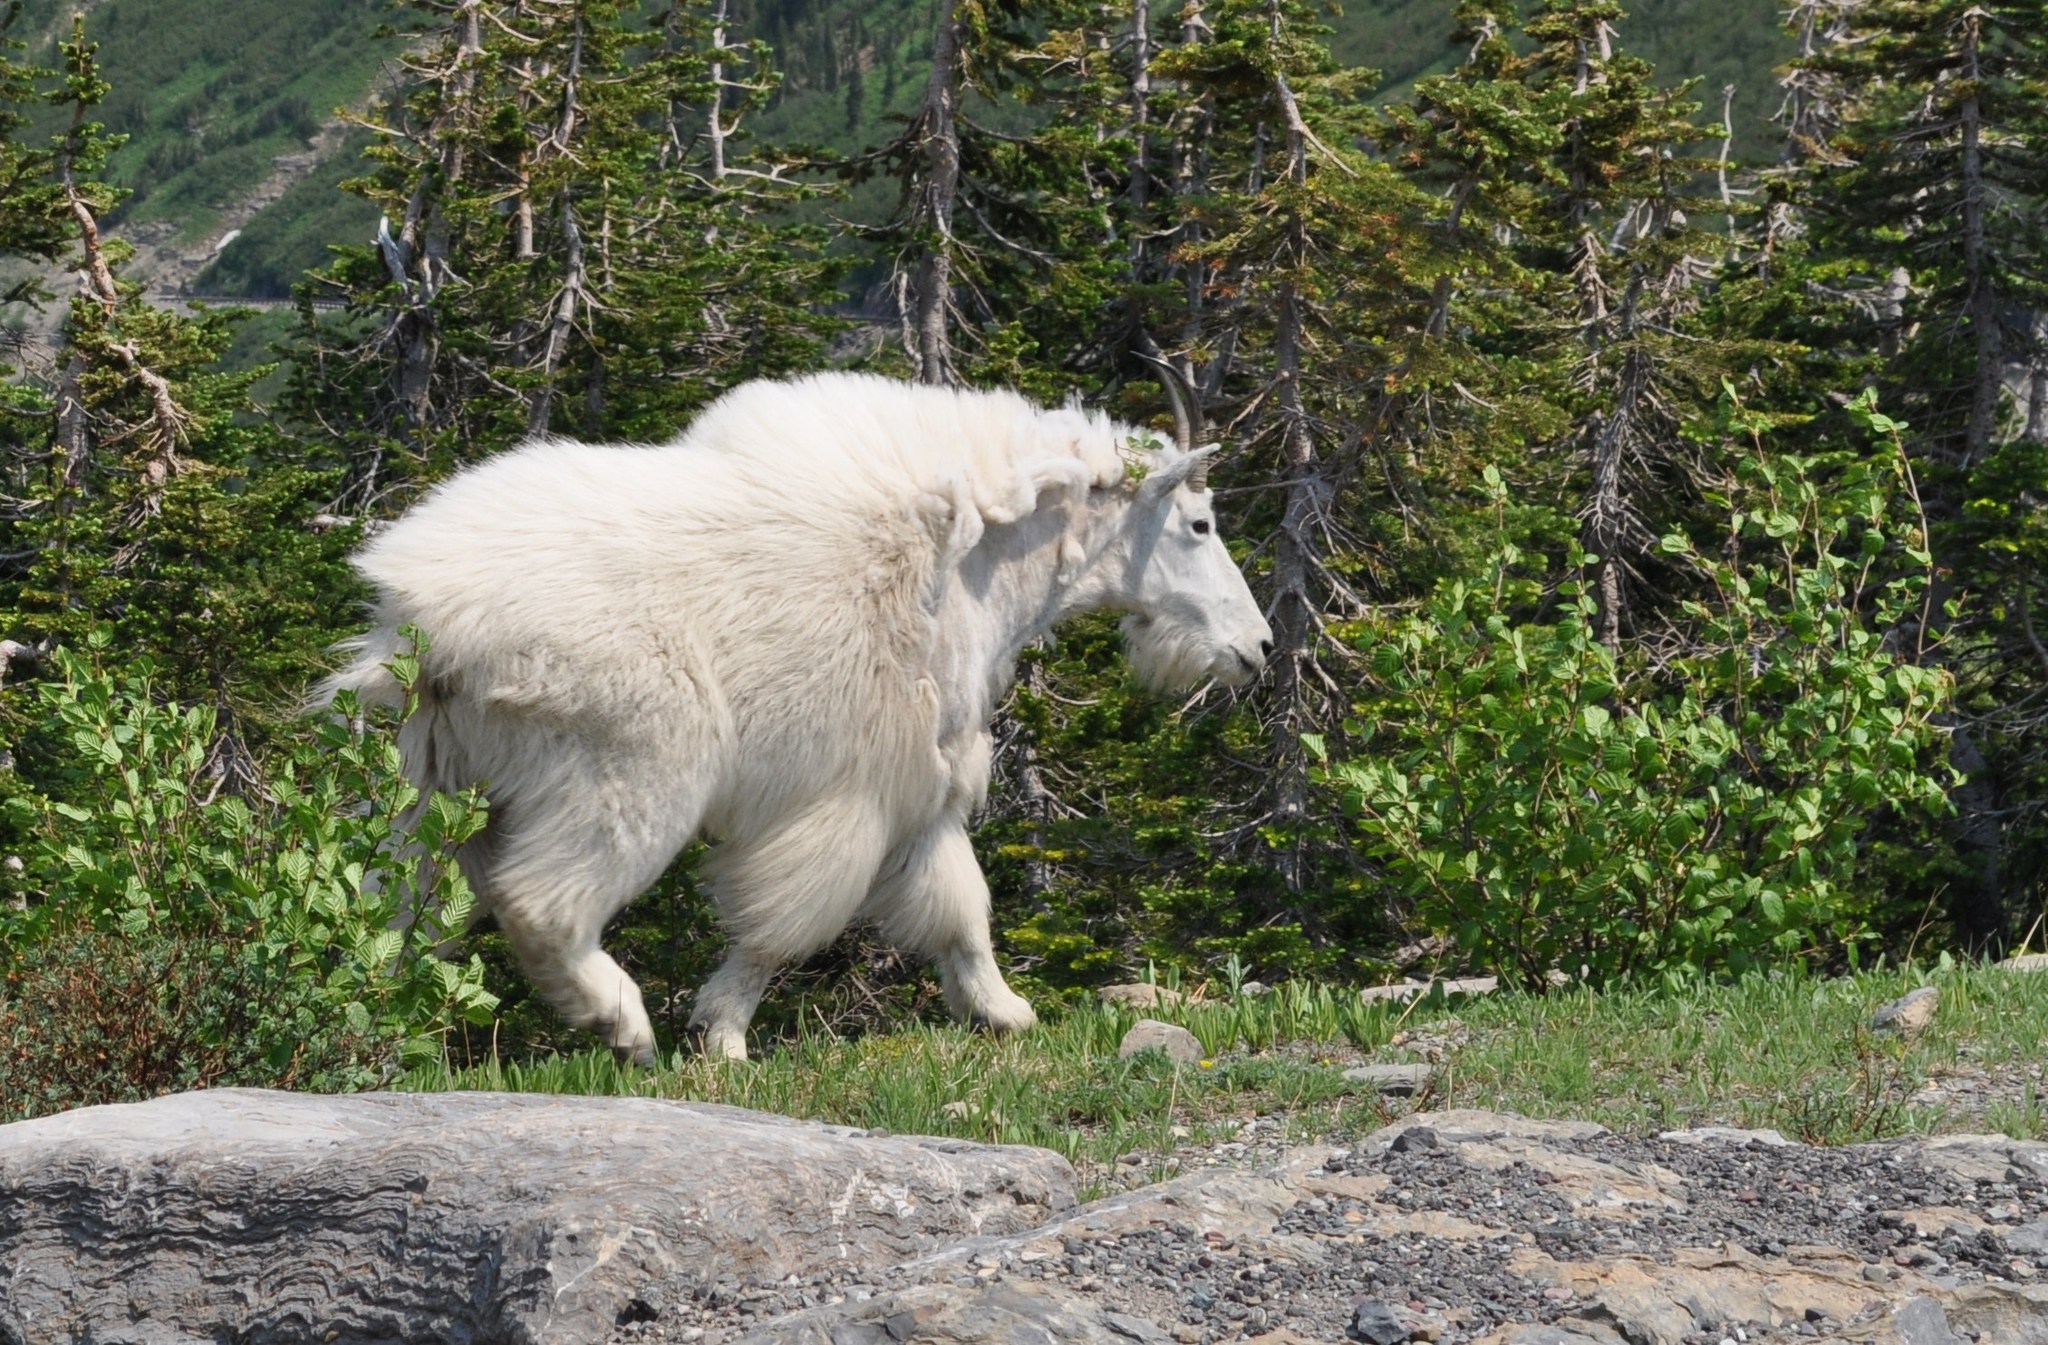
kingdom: Animalia
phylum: Chordata
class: Mammalia
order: Artiodactyla
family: Bovidae
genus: Oreamnos
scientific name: Oreamnos americanus
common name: Mountain goat
